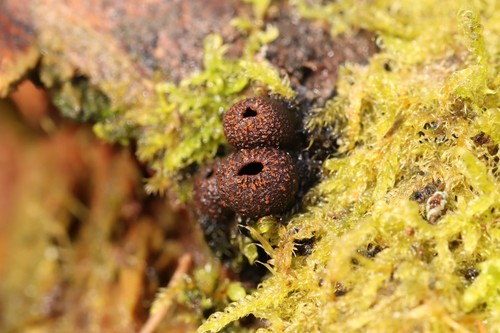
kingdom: Fungi
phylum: Ascomycota
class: Pezizomycetes
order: Pezizales
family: Sarcosomataceae
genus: Plectania
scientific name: Plectania melastoma
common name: Corona cup
